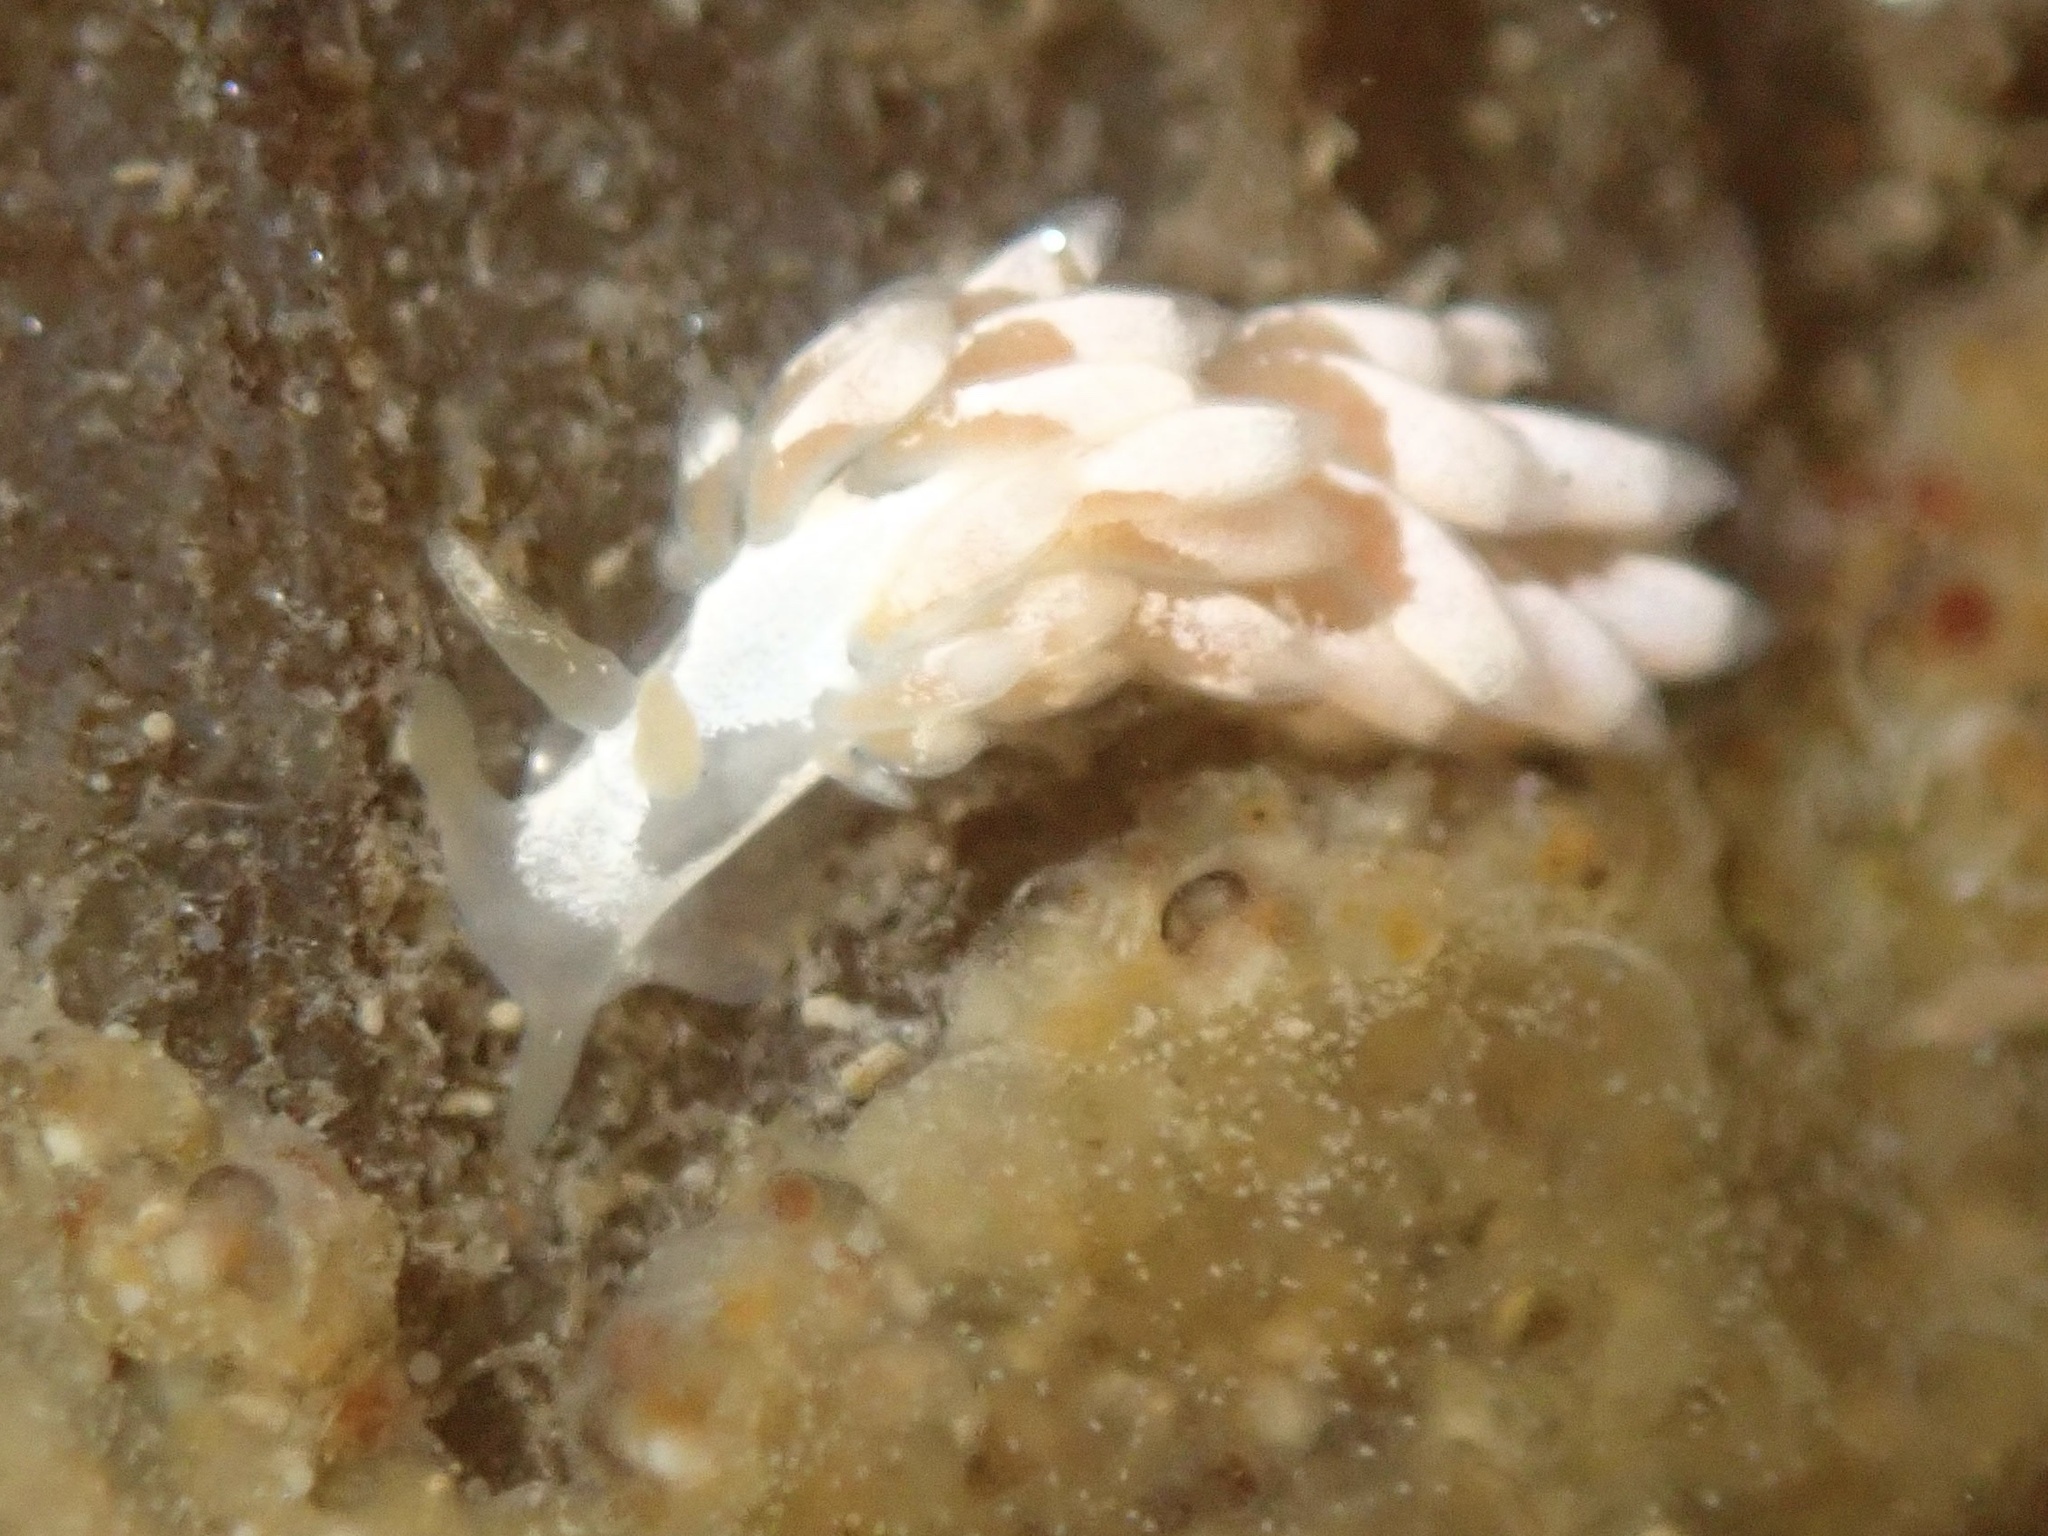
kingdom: Animalia
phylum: Mollusca
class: Gastropoda
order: Nudibranchia
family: Trinchesiidae
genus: Trinchesia
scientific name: Trinchesia albocrusta
